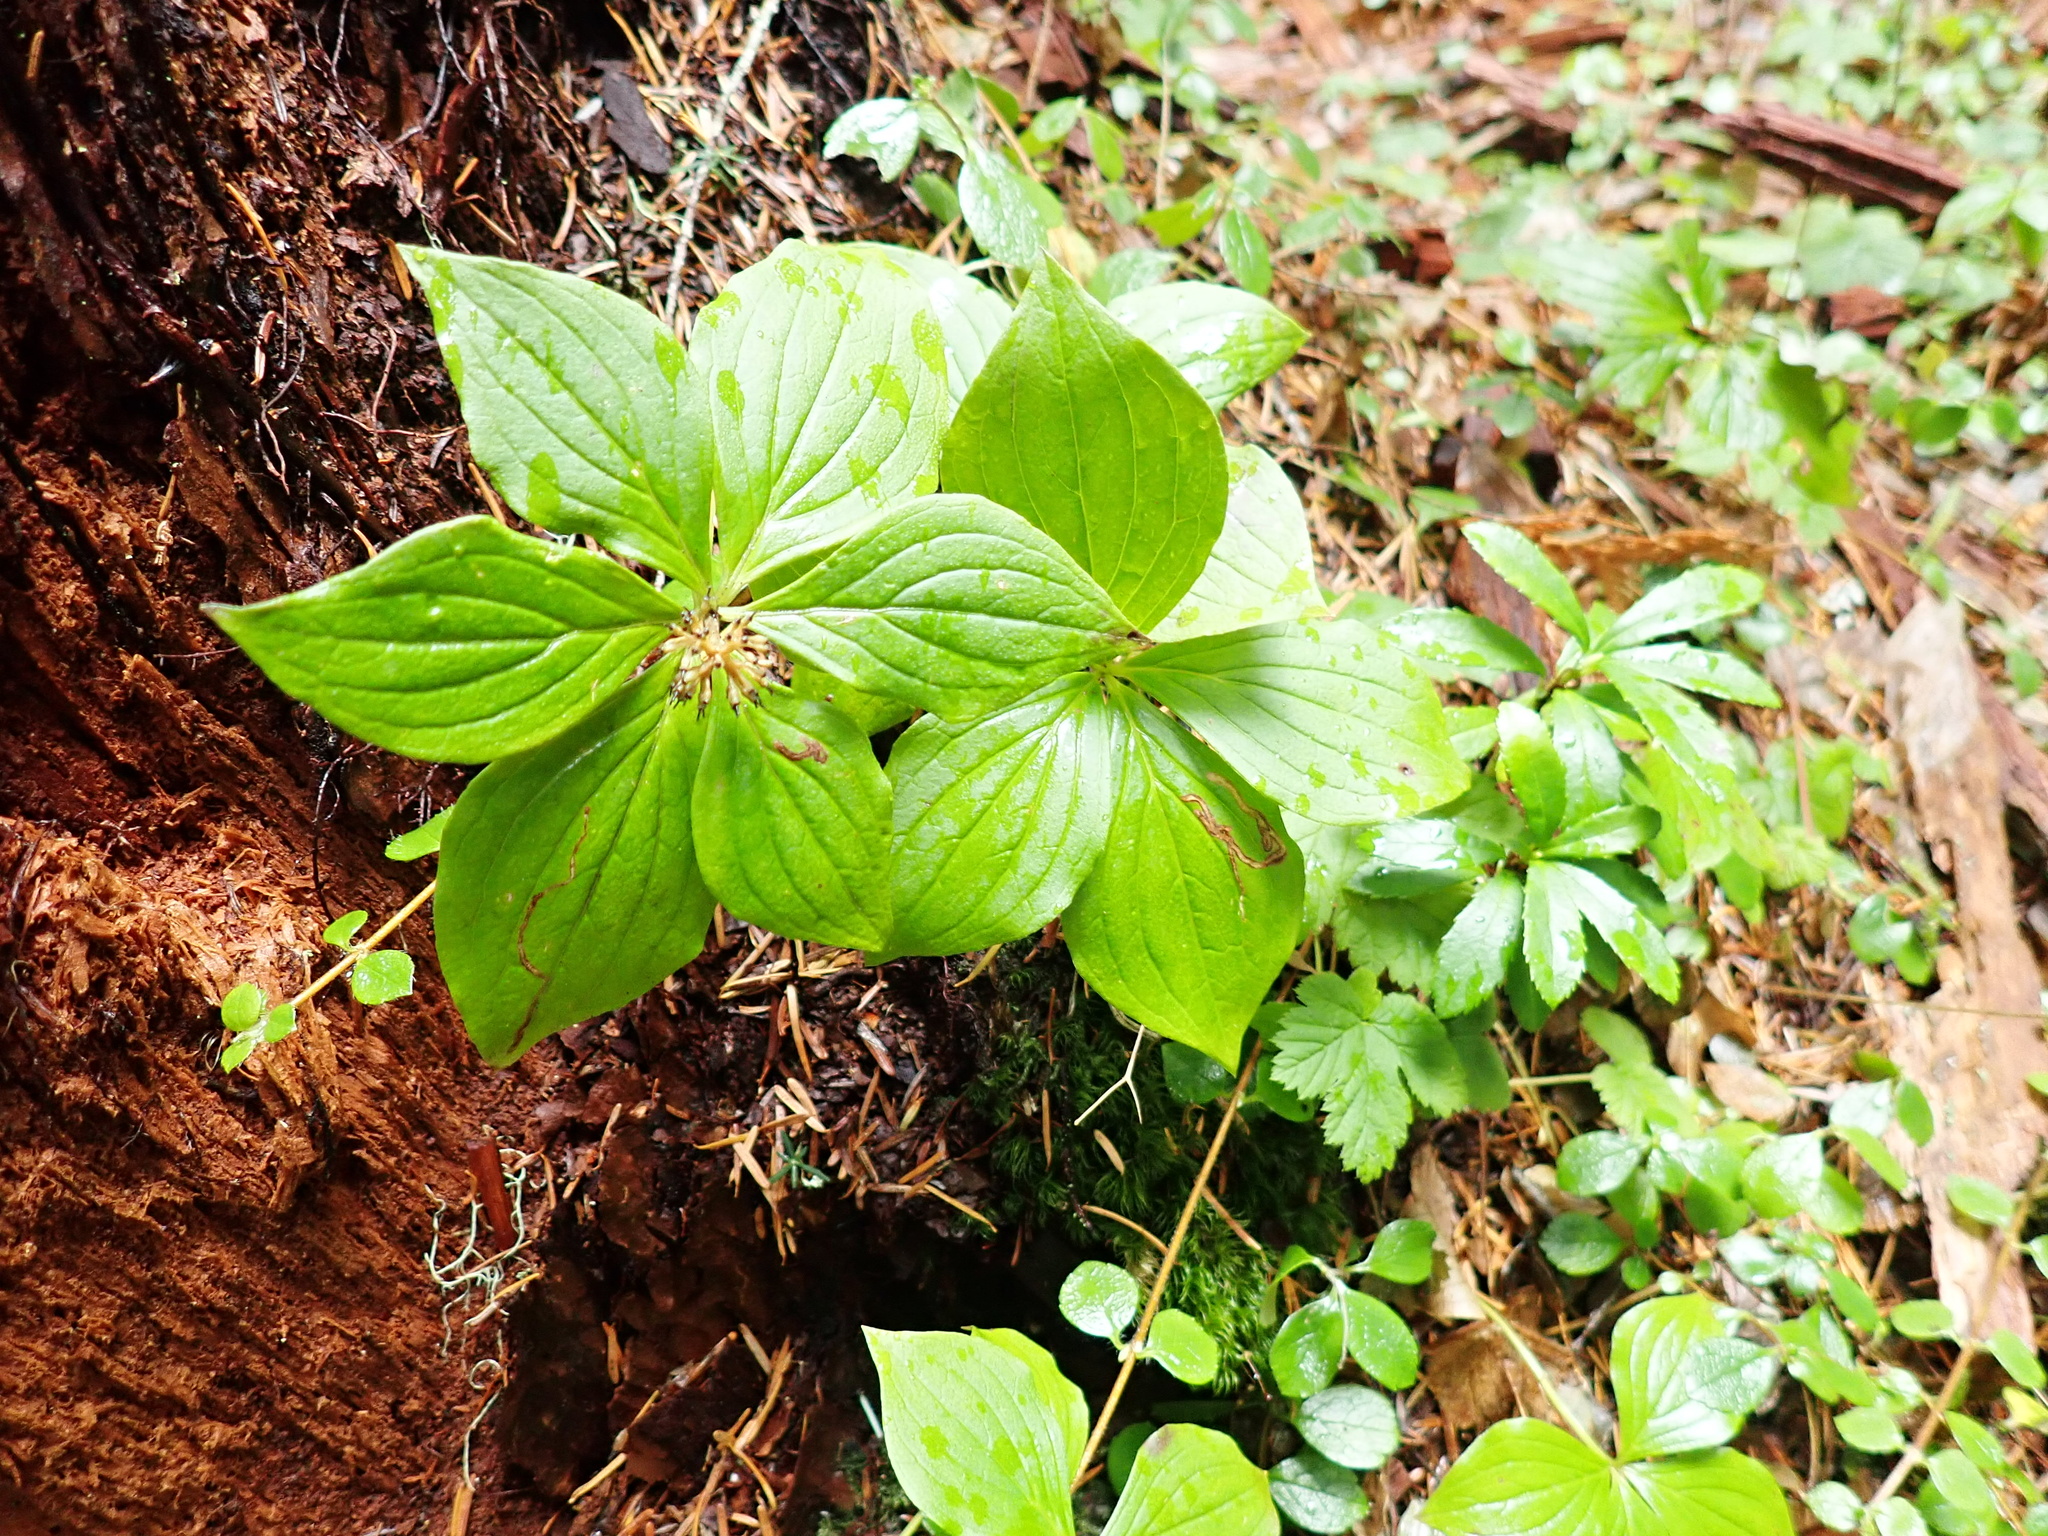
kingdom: Plantae
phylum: Tracheophyta
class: Magnoliopsida
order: Cornales
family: Cornaceae
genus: Cornus
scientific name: Cornus unalaschkensis
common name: Alaska bunchberry
